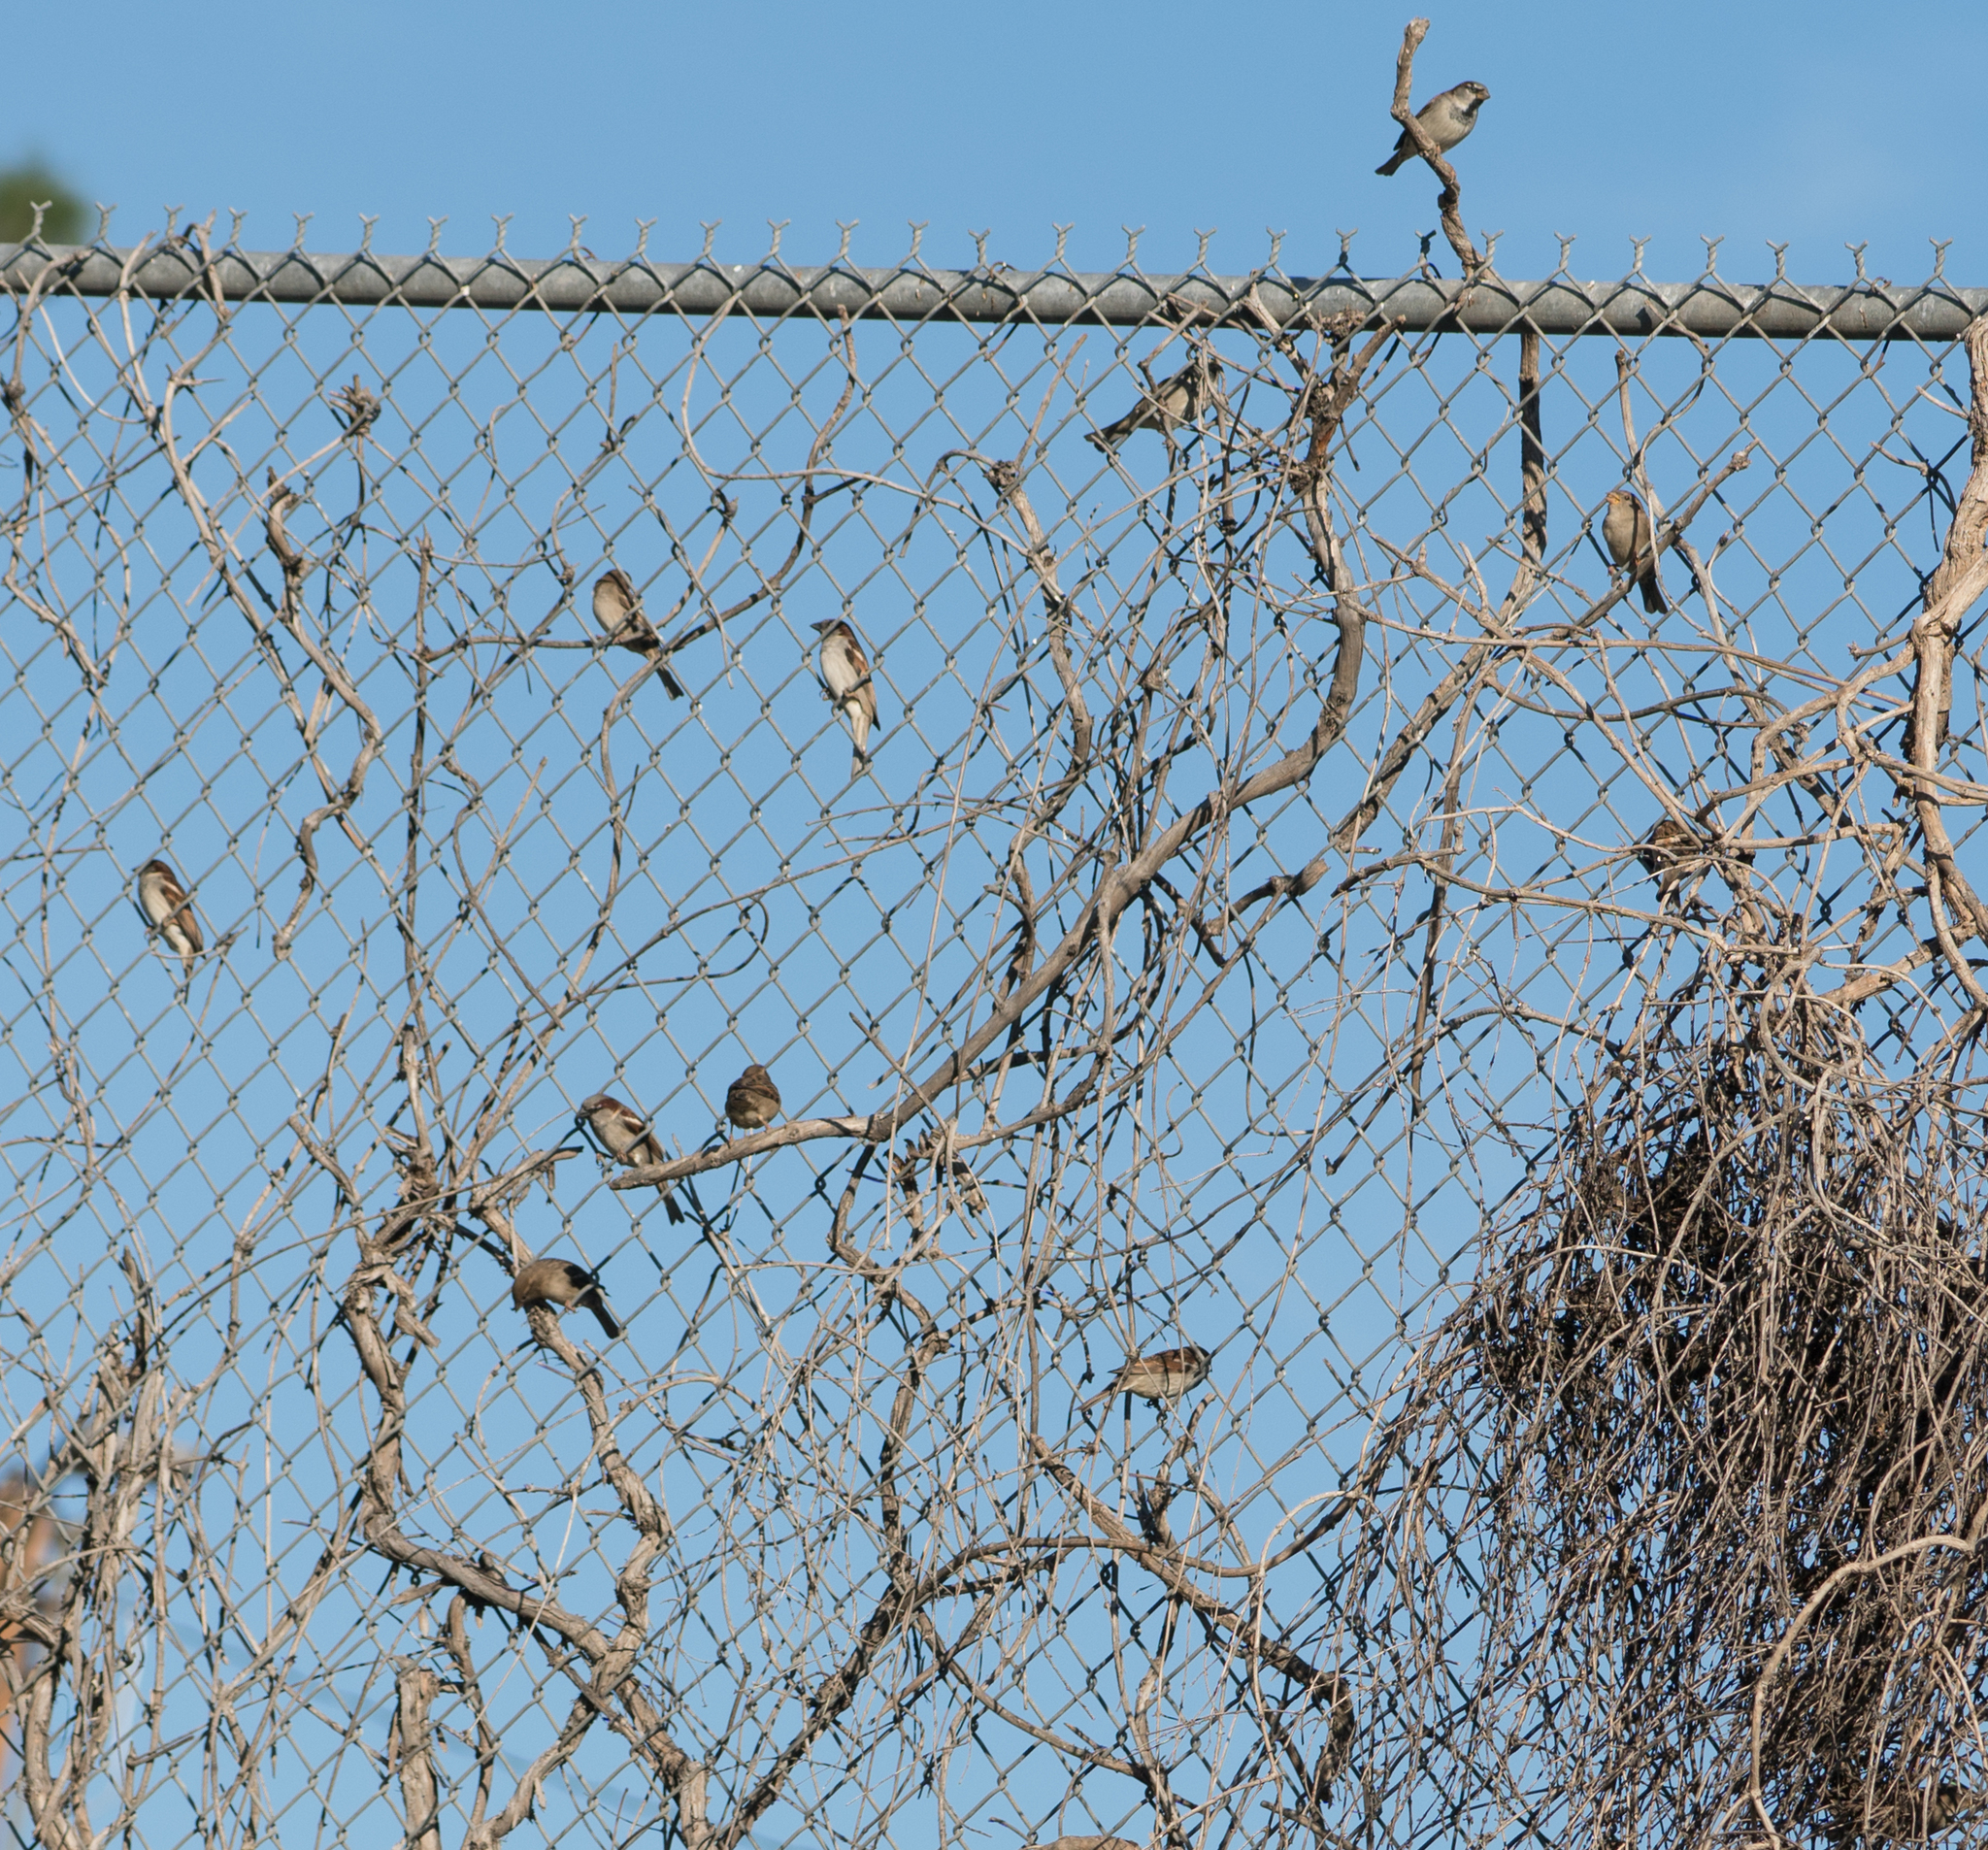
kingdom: Animalia
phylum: Chordata
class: Aves
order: Passeriformes
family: Passeridae
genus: Passer
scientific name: Passer domesticus
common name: House sparrow
